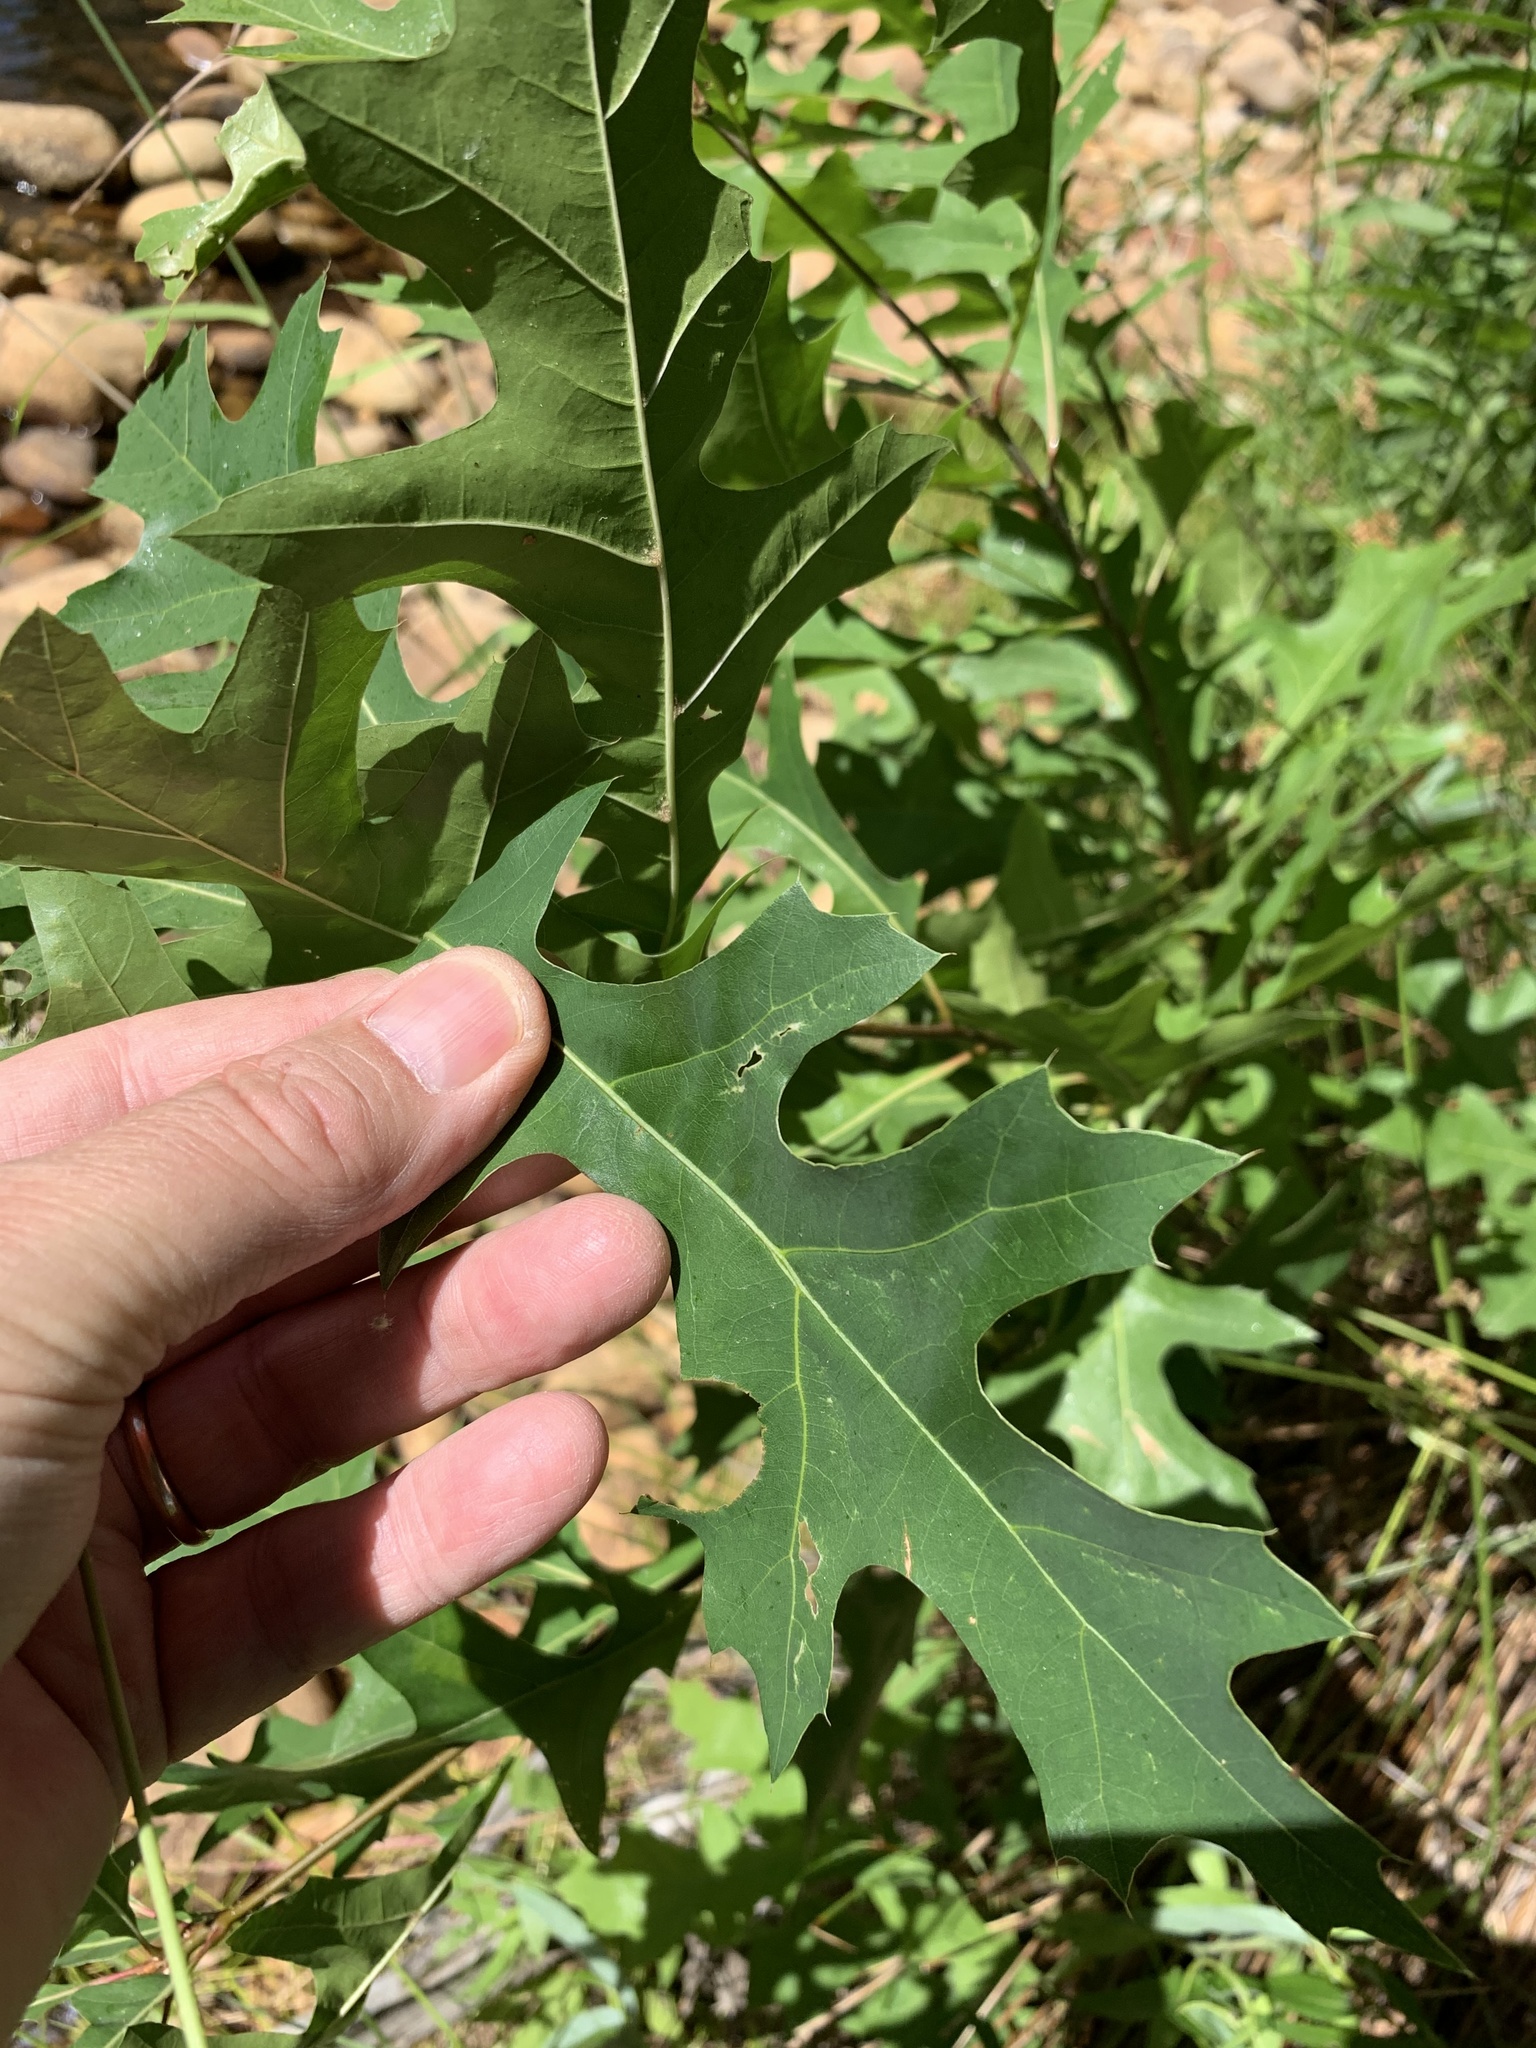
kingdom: Plantae
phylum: Tracheophyta
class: Magnoliopsida
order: Fagales
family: Fagaceae
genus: Quercus
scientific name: Quercus palustris
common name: Pin oak
